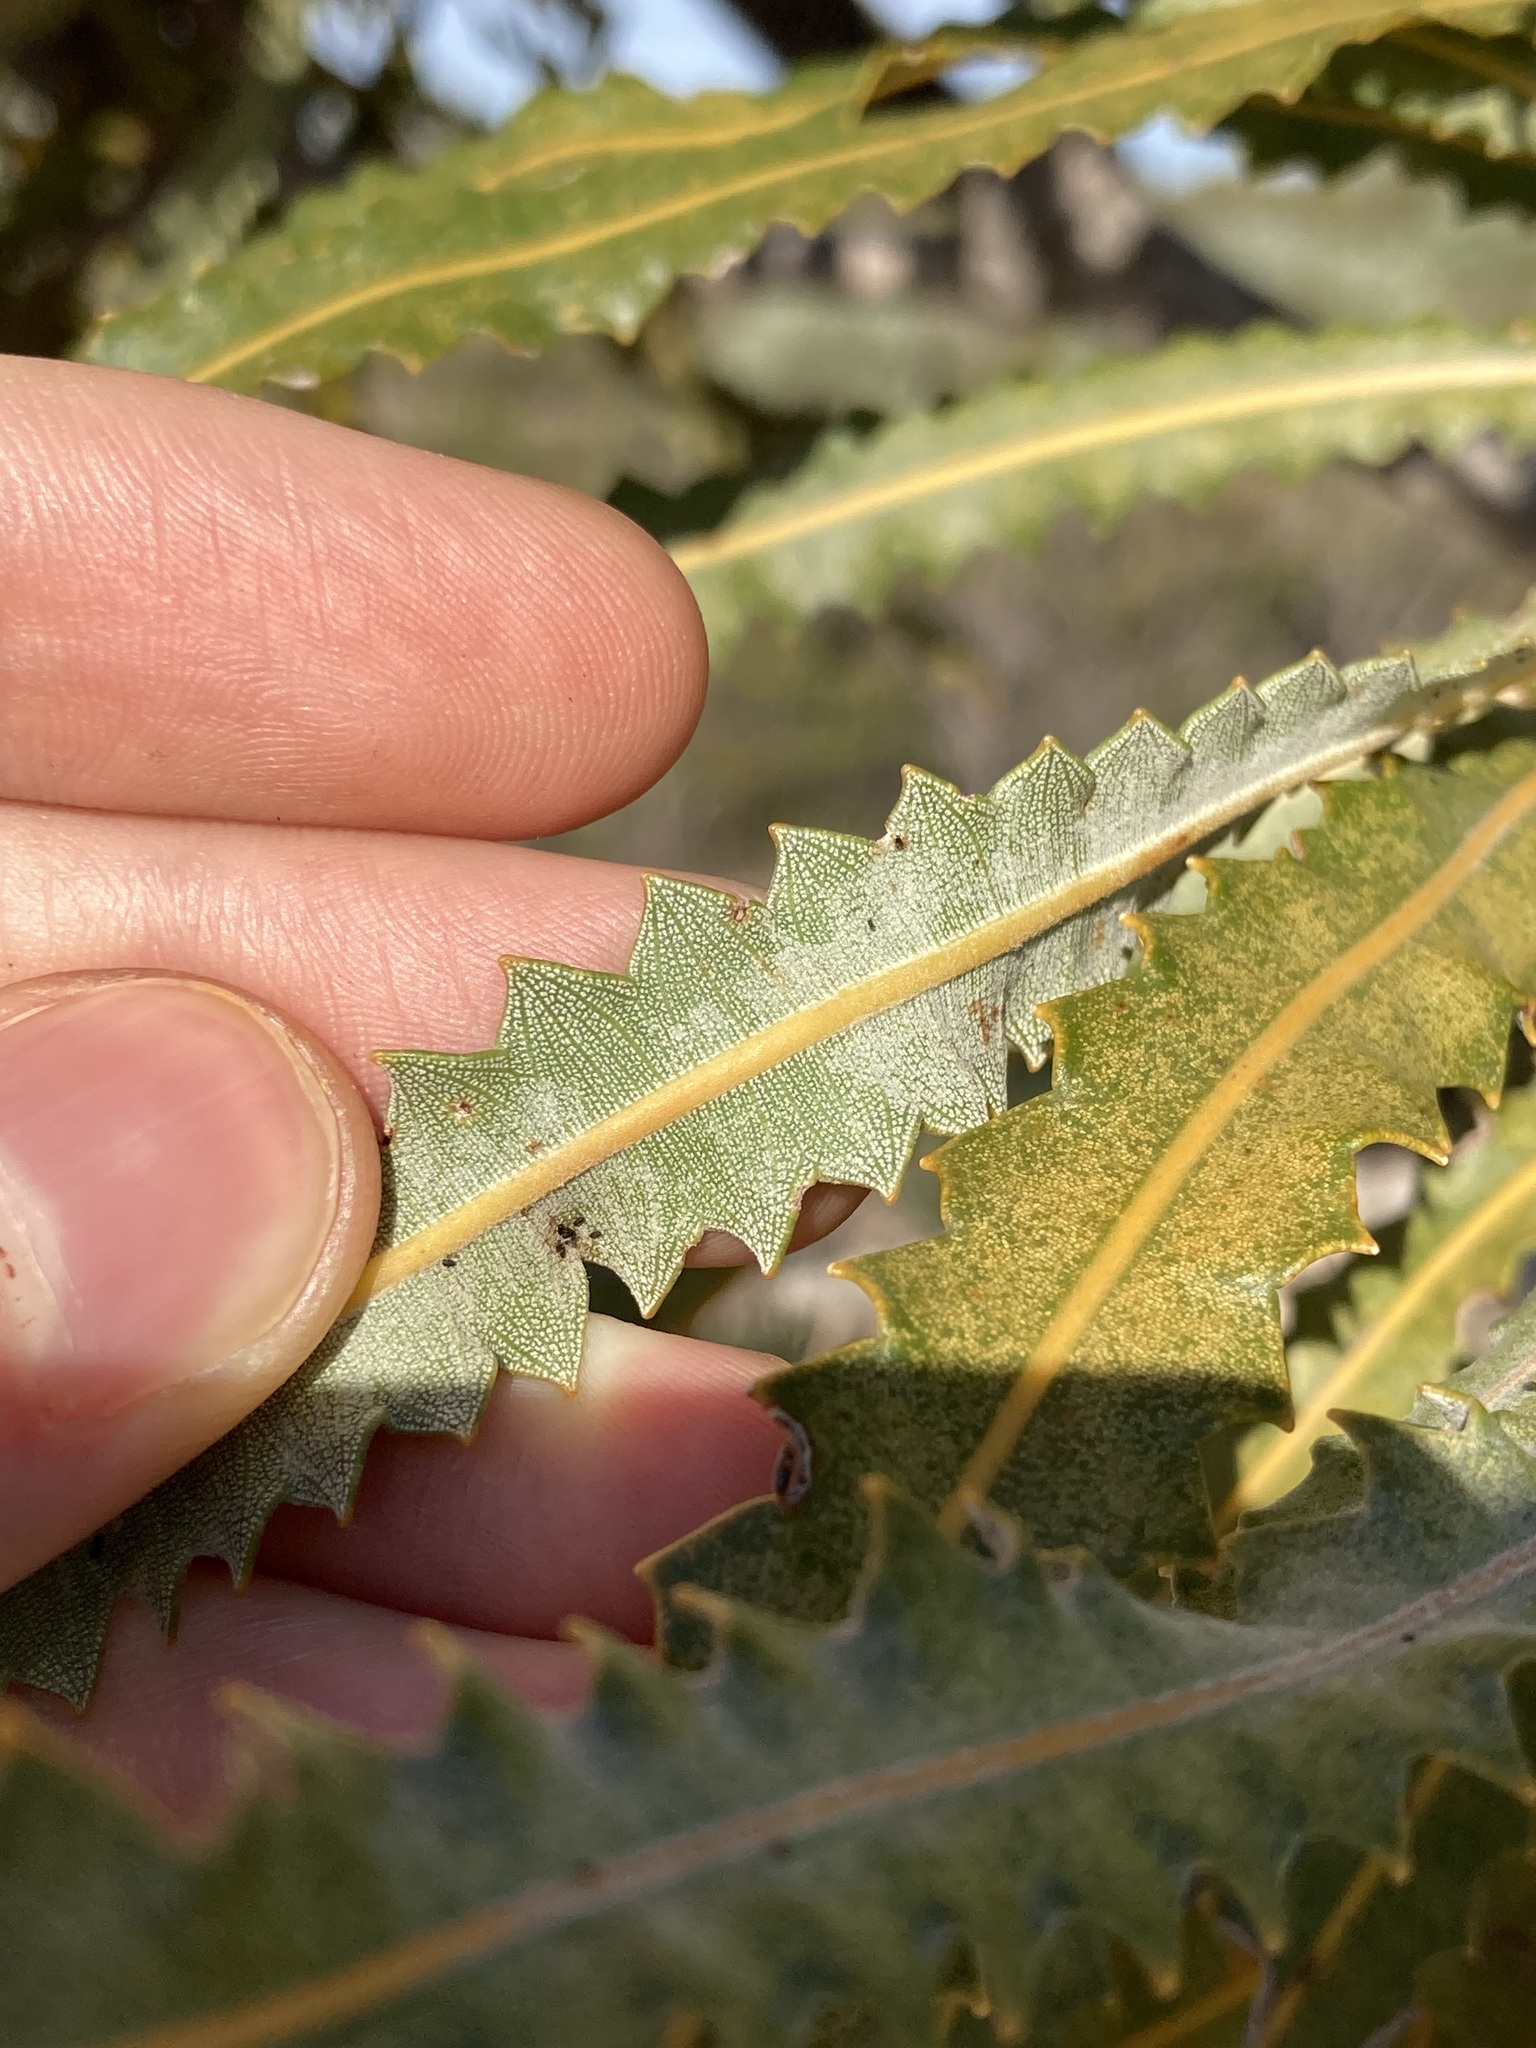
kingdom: Plantae
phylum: Tracheophyta
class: Magnoliopsida
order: Proteales
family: Proteaceae
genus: Banksia
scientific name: Banksia prionotes
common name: Acorn banksia
